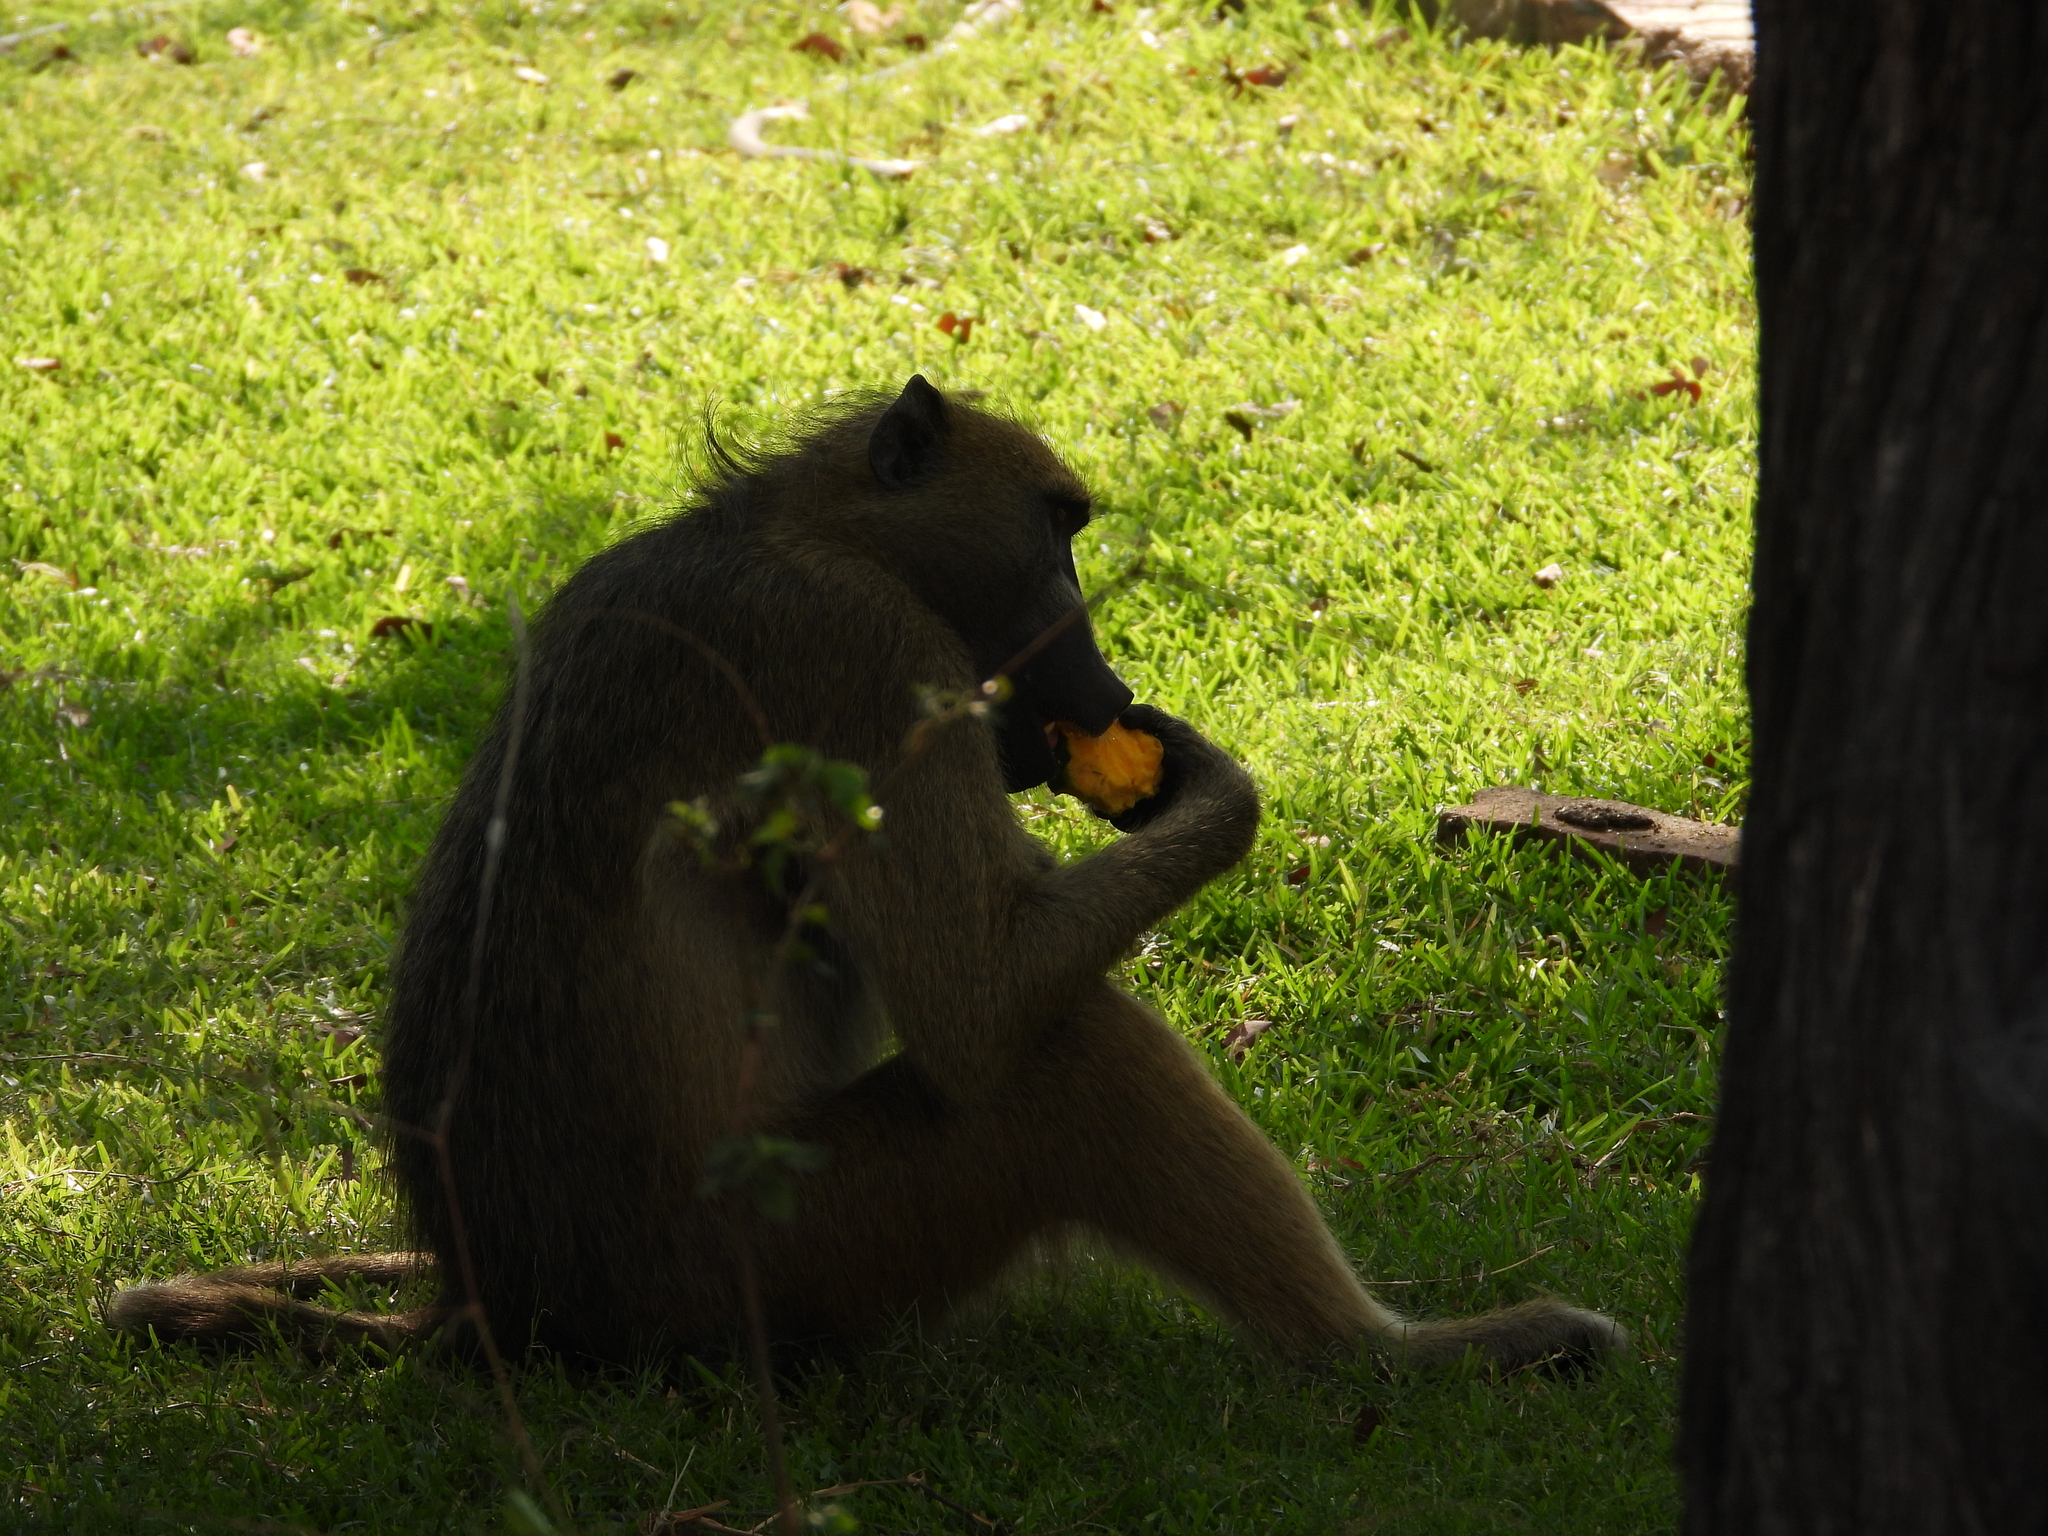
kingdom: Animalia
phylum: Chordata
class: Mammalia
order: Primates
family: Cercopithecidae
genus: Papio
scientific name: Papio ursinus
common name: Chacma baboon
